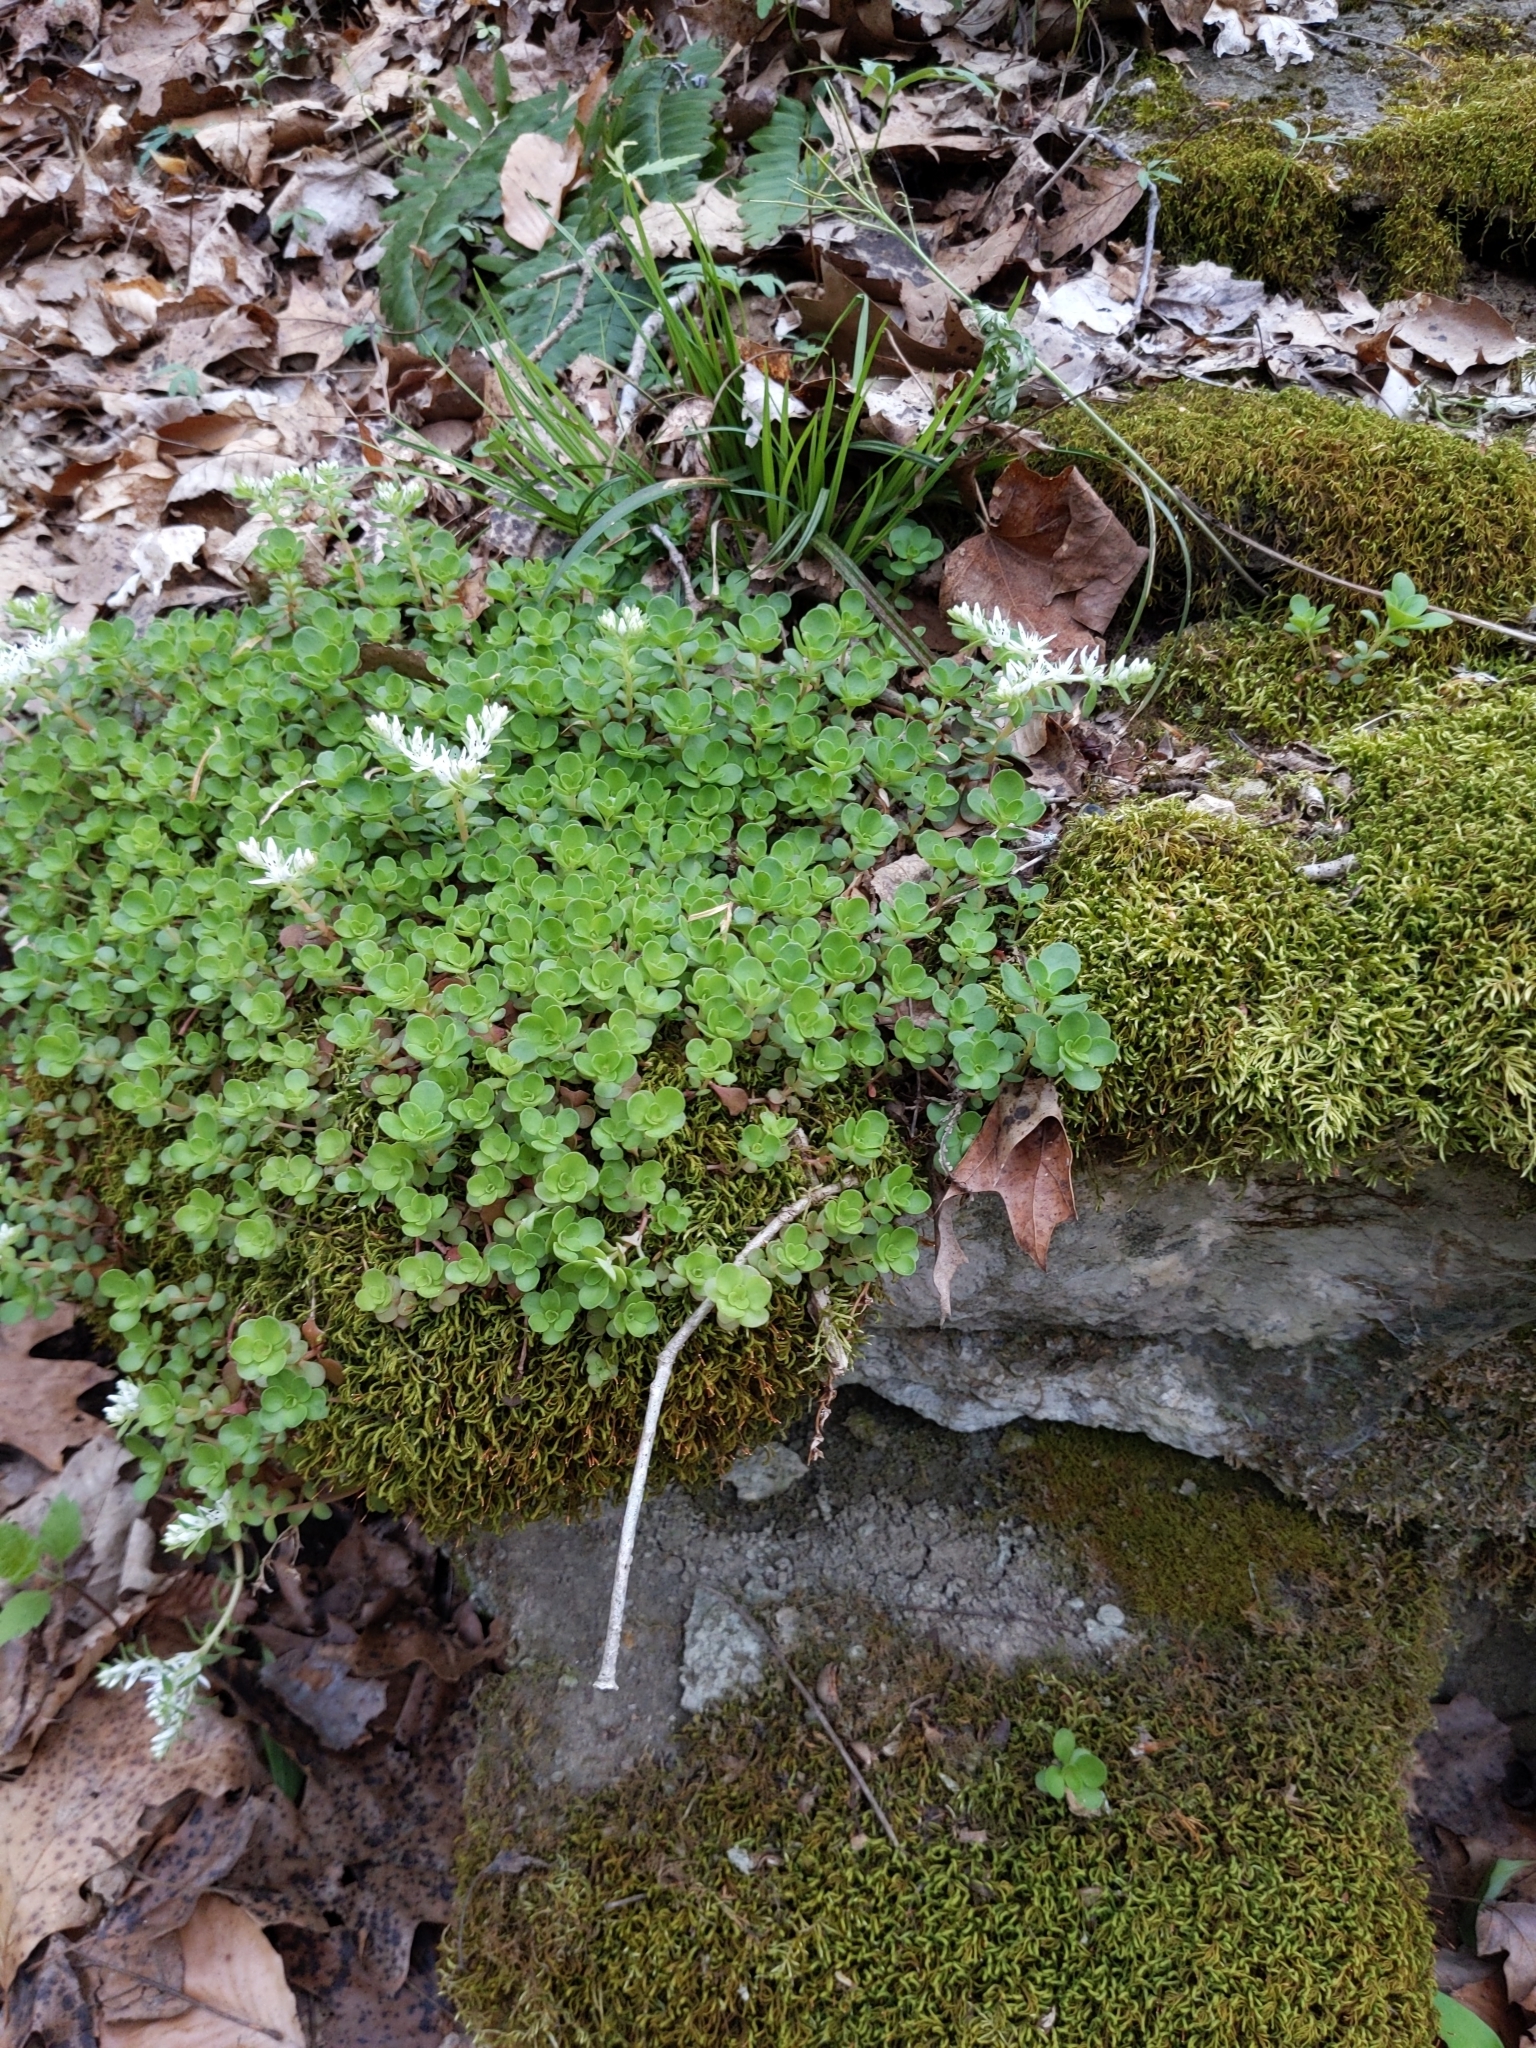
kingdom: Plantae
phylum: Tracheophyta
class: Magnoliopsida
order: Saxifragales
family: Crassulaceae
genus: Sedum
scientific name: Sedum ternatum
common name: Wild stonecrop
